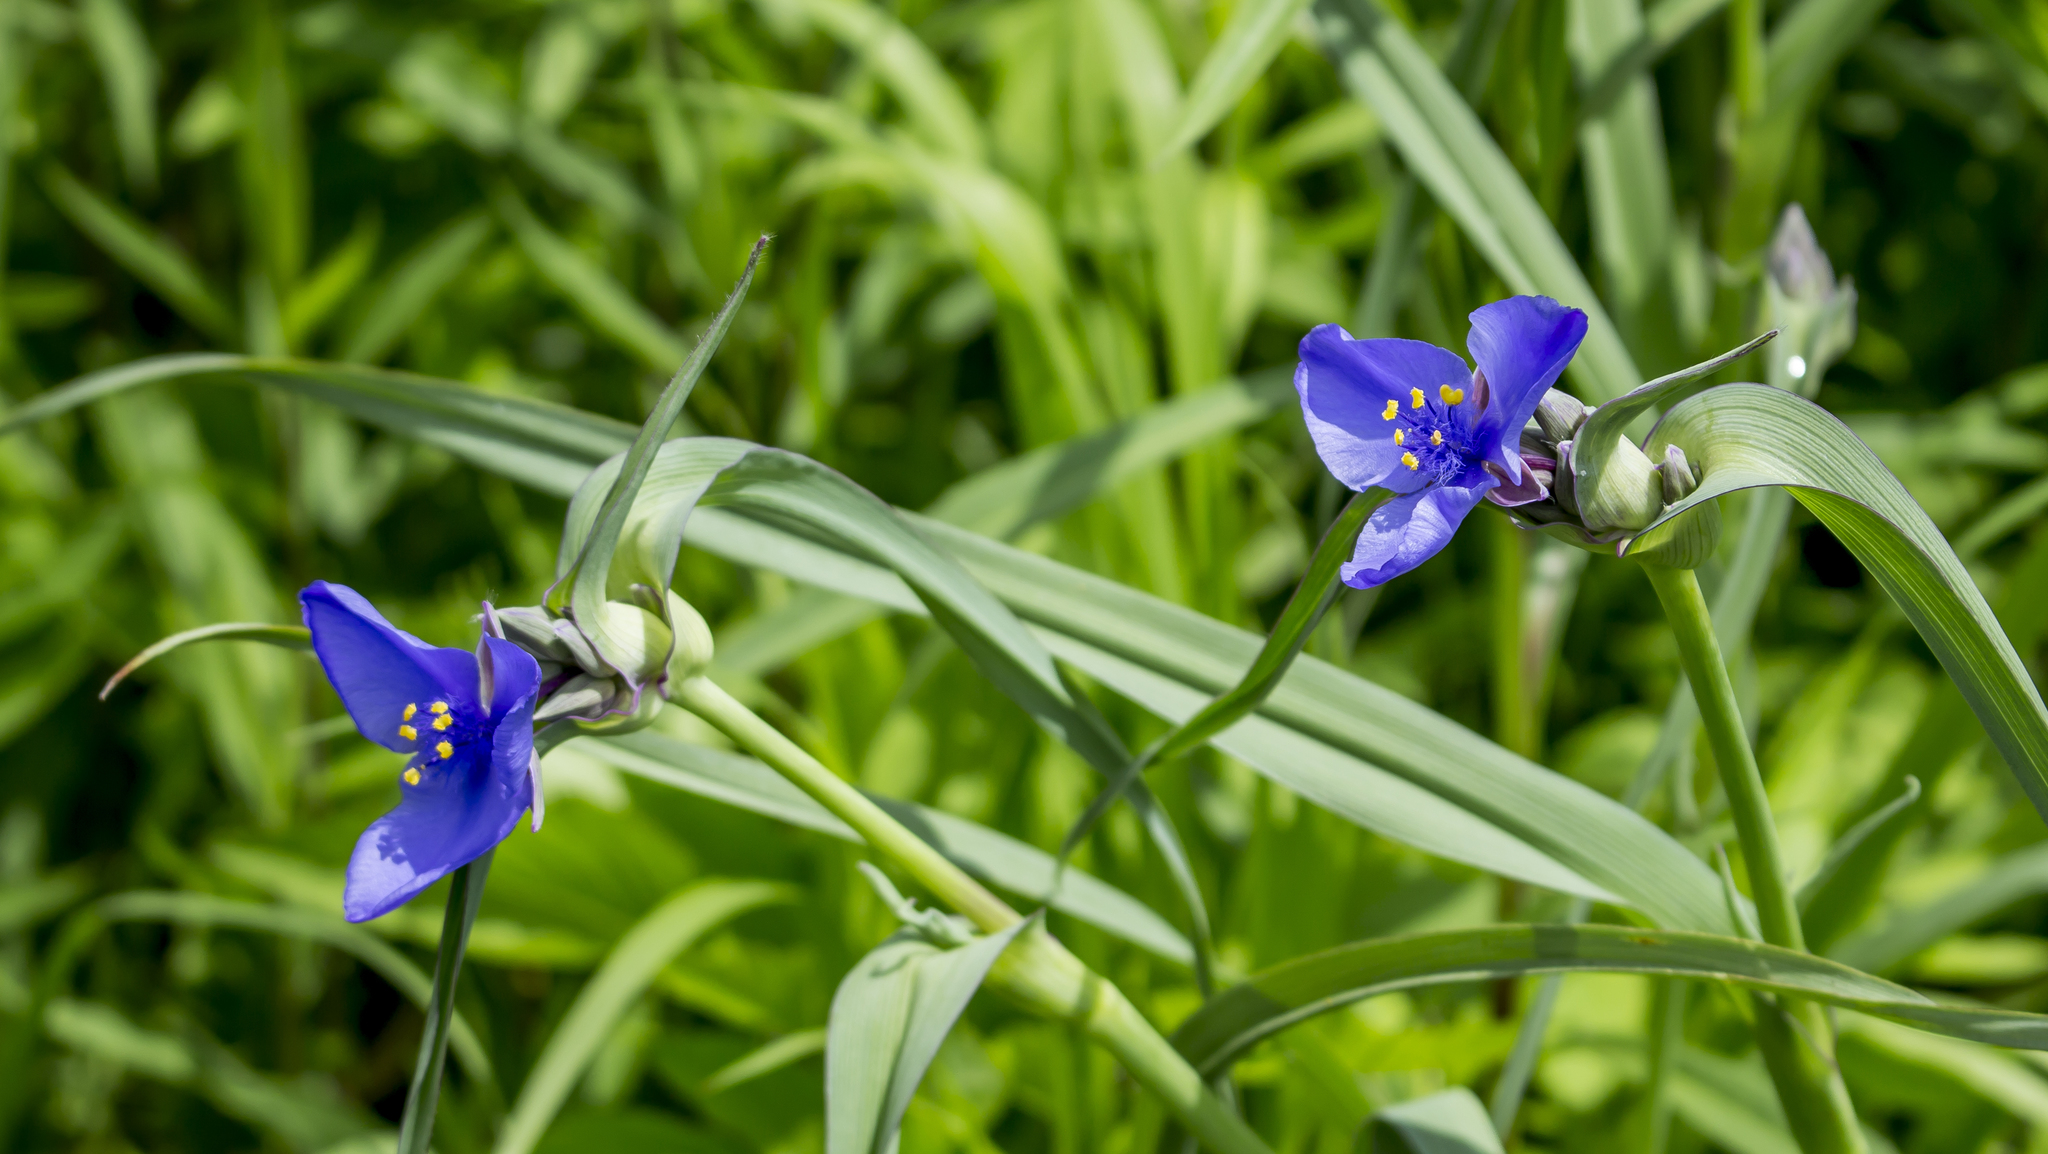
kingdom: Plantae
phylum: Tracheophyta
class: Liliopsida
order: Commelinales
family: Commelinaceae
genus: Tradescantia
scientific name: Tradescantia ohiensis
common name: Ohio spiderwort
